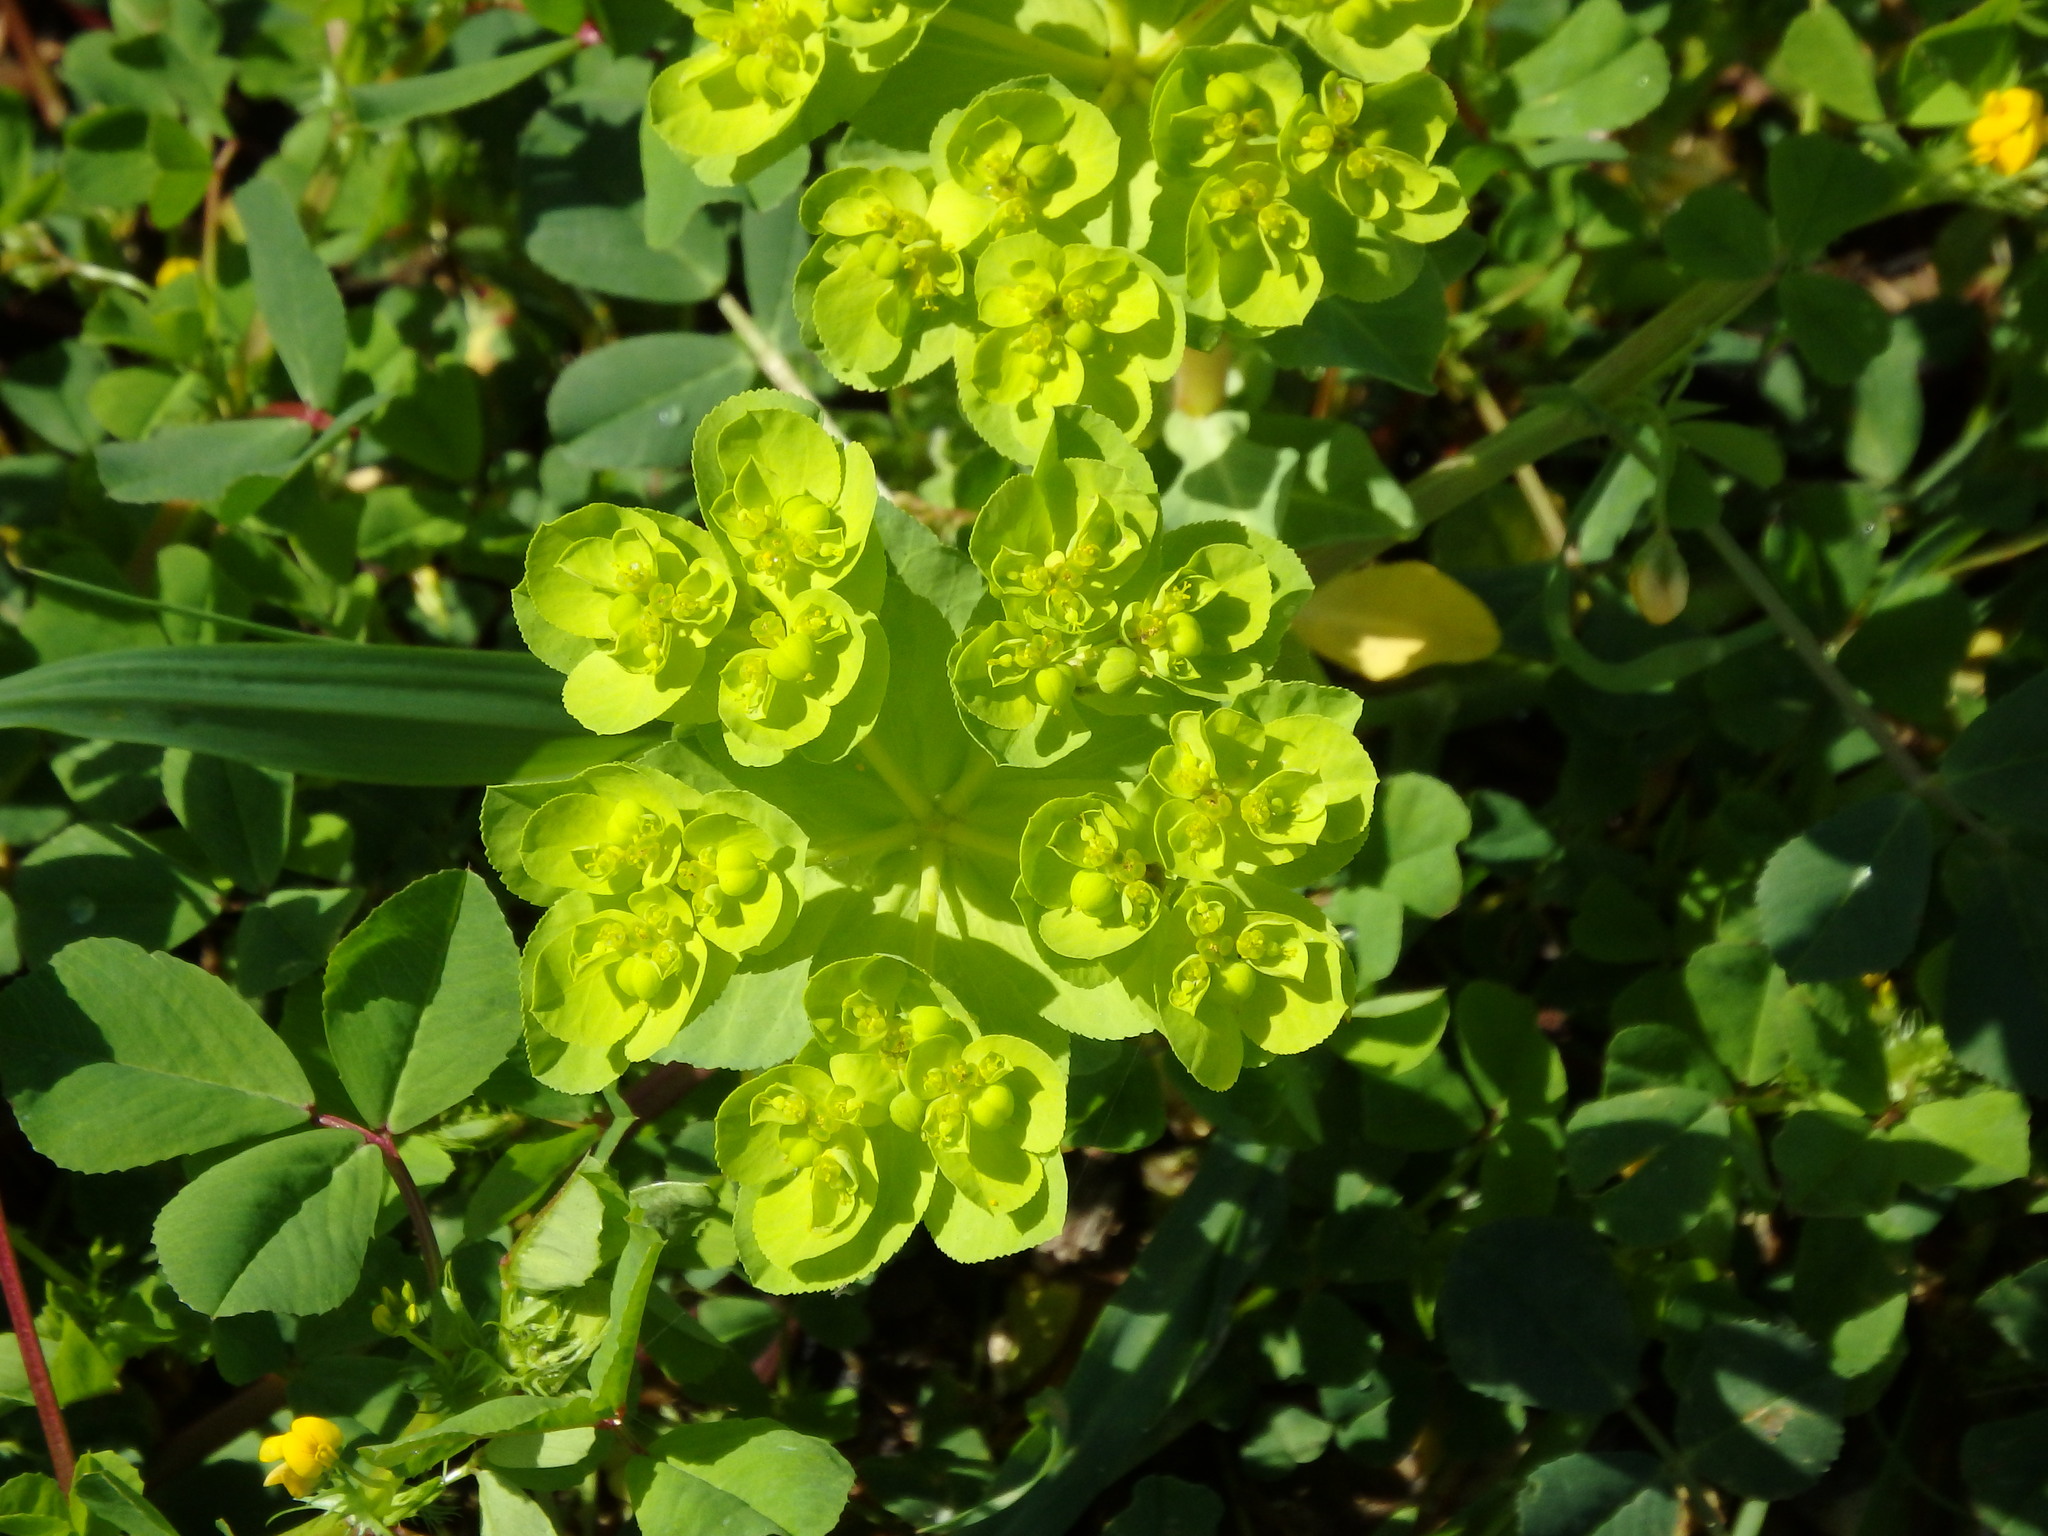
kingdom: Plantae
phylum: Tracheophyta
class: Magnoliopsida
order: Malpighiales
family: Euphorbiaceae
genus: Euphorbia
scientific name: Euphorbia helioscopia
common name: Sun spurge
